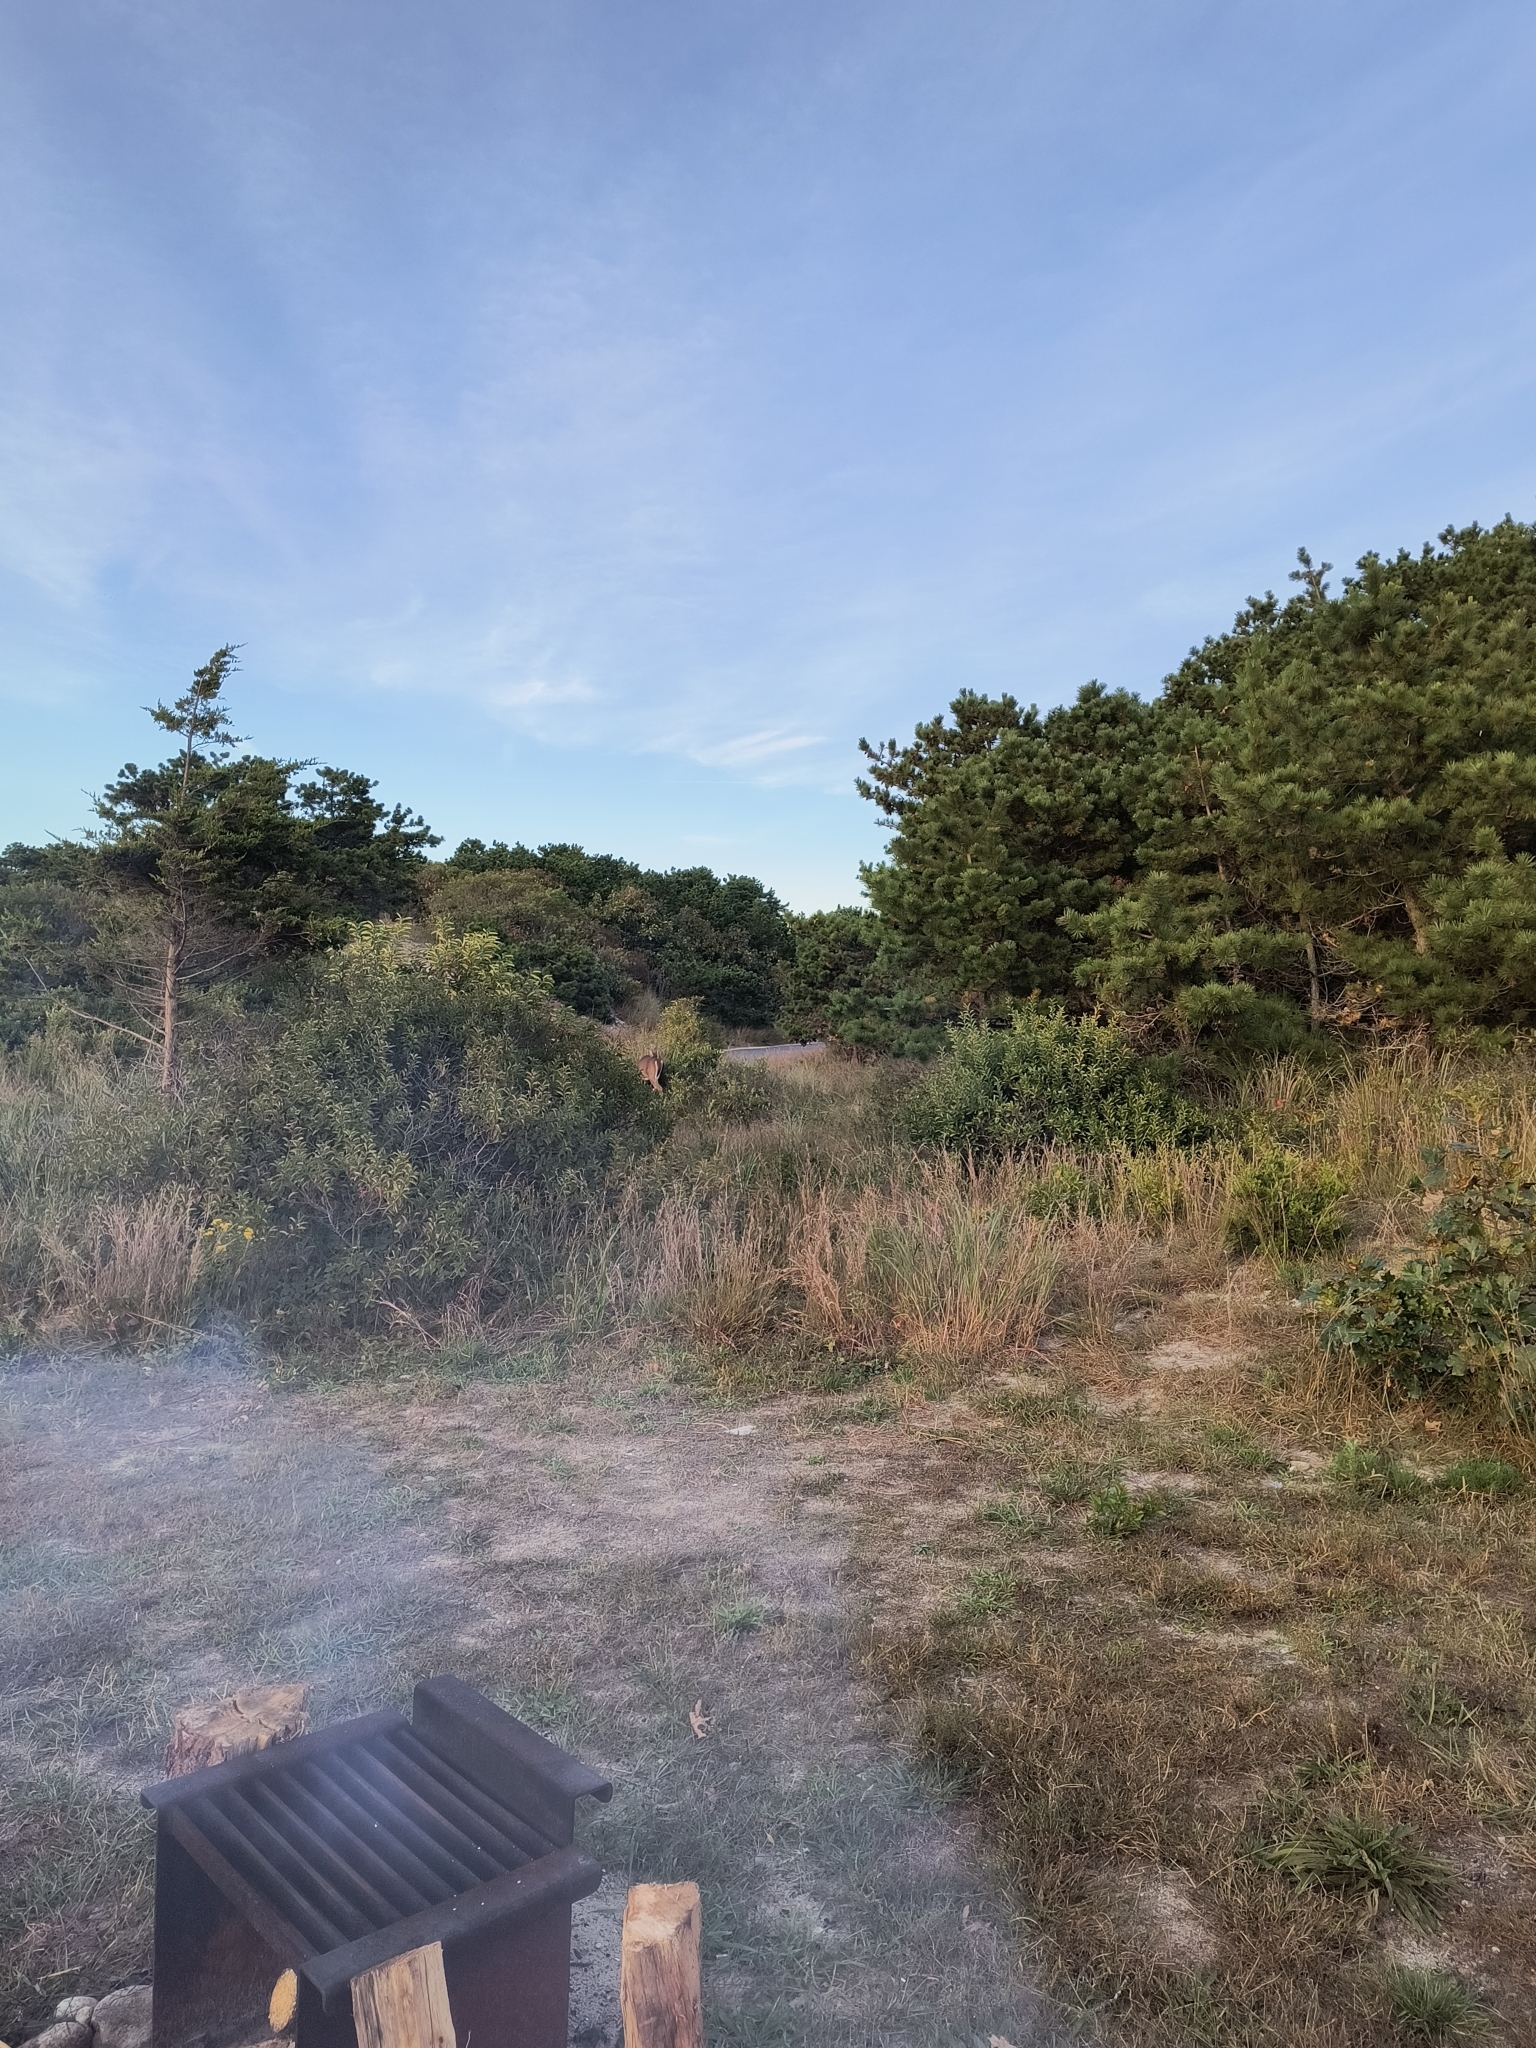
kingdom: Animalia
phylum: Chordata
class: Mammalia
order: Artiodactyla
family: Cervidae
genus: Odocoileus
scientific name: Odocoileus virginianus
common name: White-tailed deer
